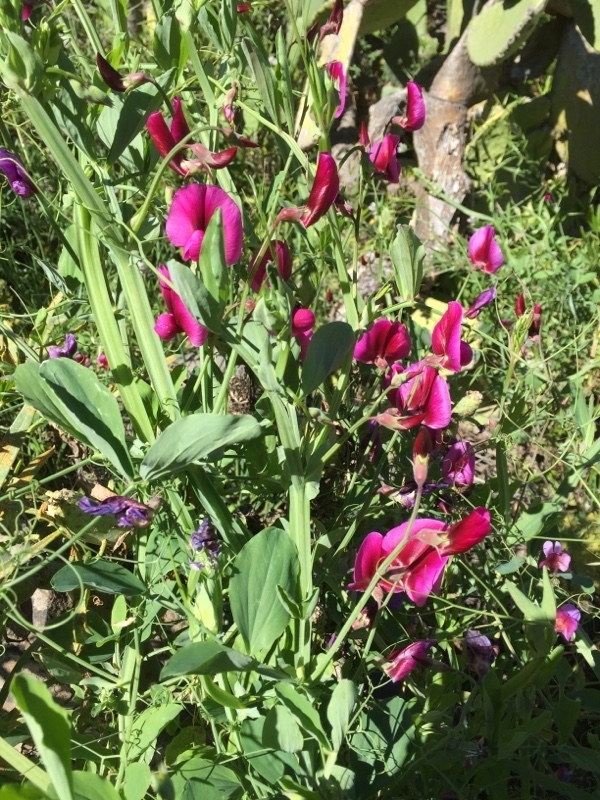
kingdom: Plantae
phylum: Tracheophyta
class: Magnoliopsida
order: Fabales
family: Fabaceae
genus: Lathyrus
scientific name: Lathyrus tingitanus
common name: Tangier pea
